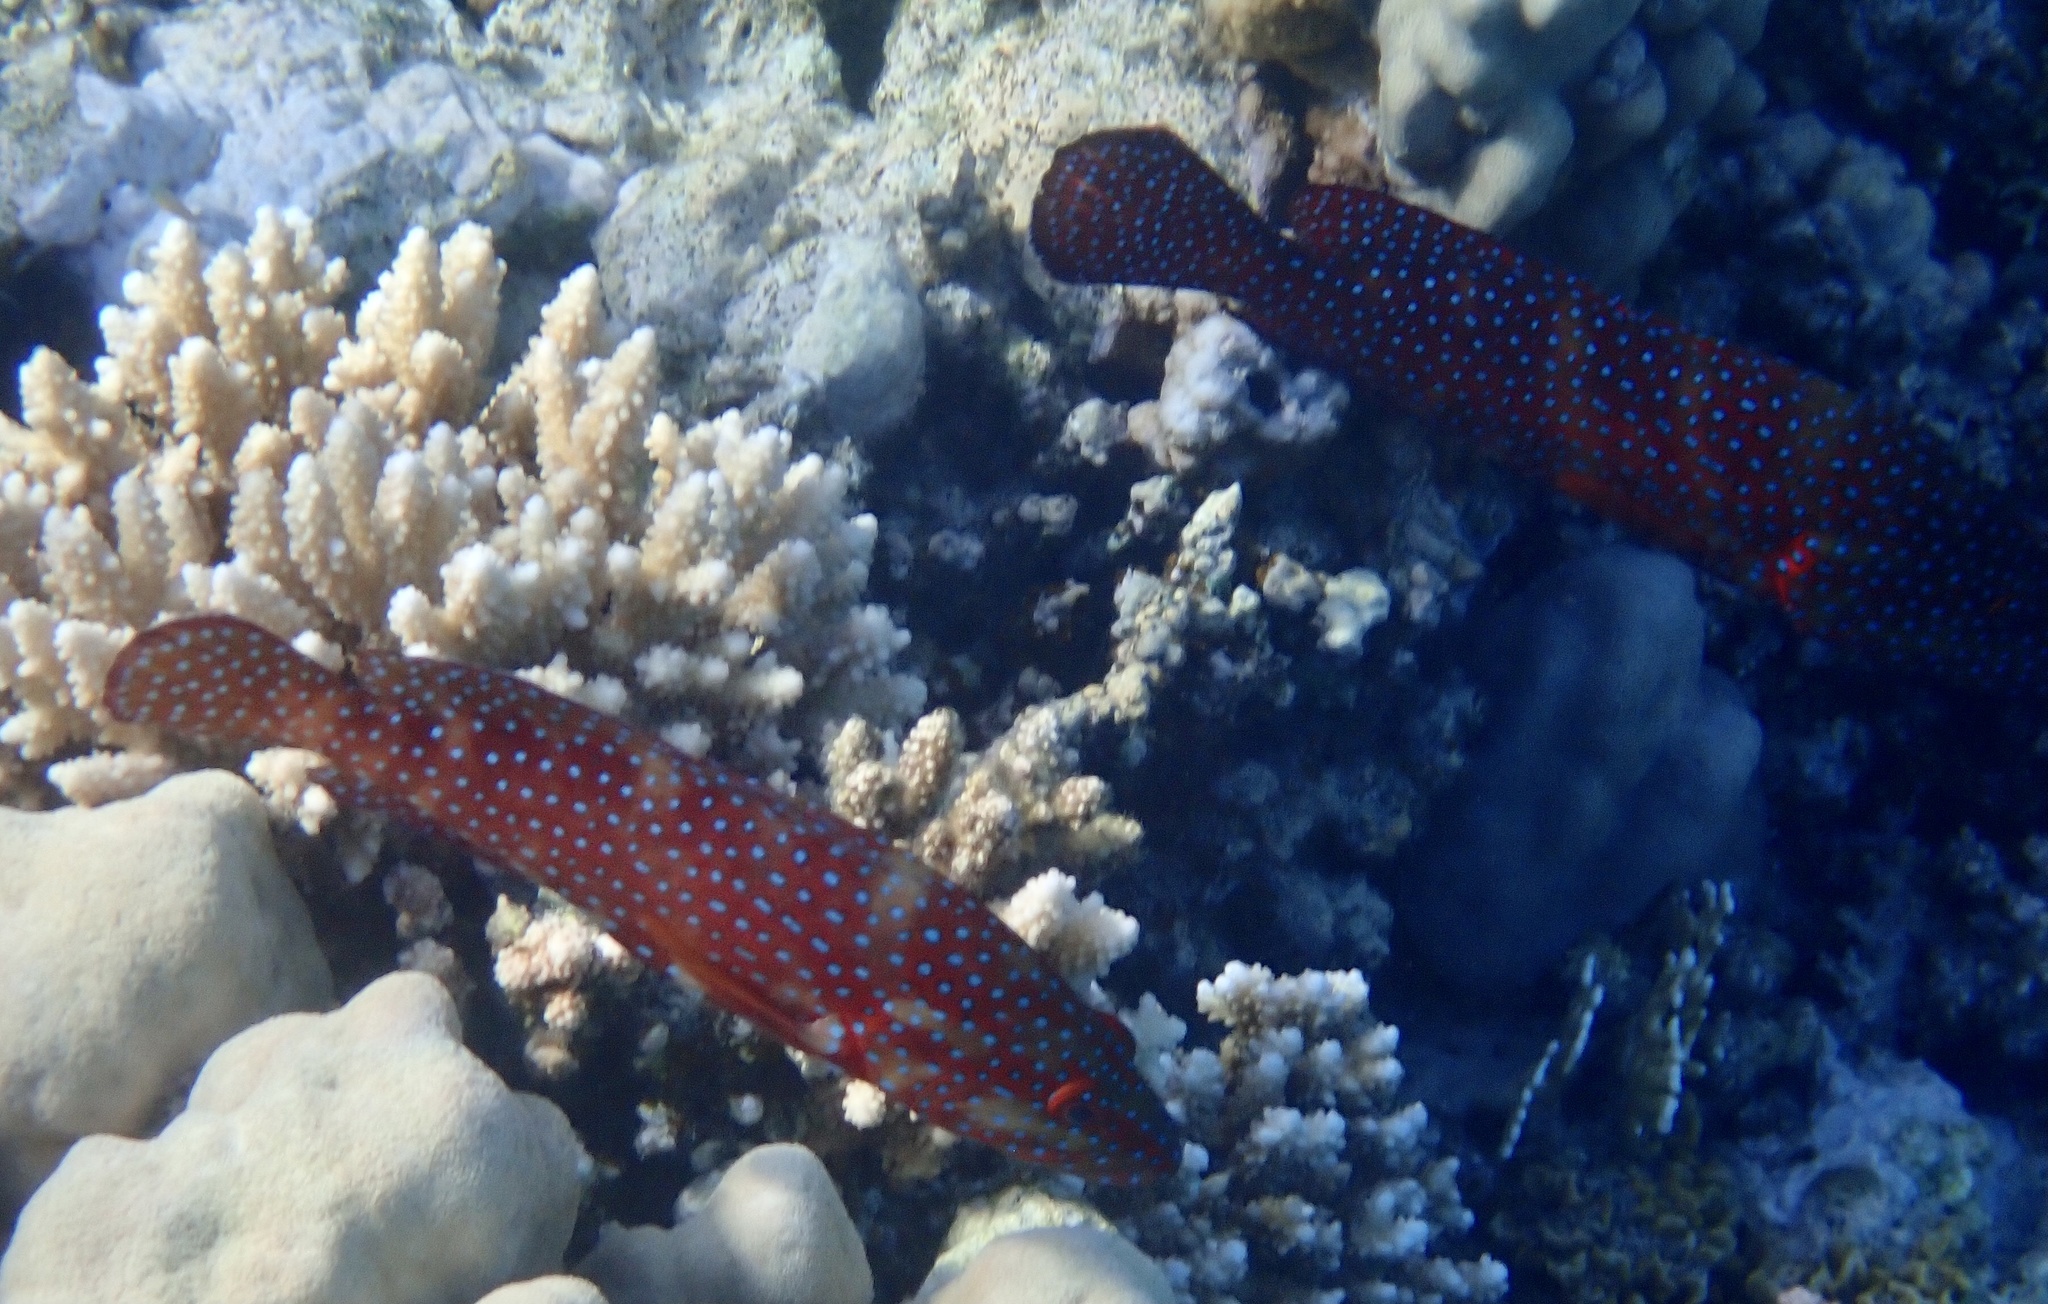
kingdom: Animalia
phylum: Chordata
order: Perciformes
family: Serranidae
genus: Cephalopholis
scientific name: Cephalopholis miniata
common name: Coral hind
